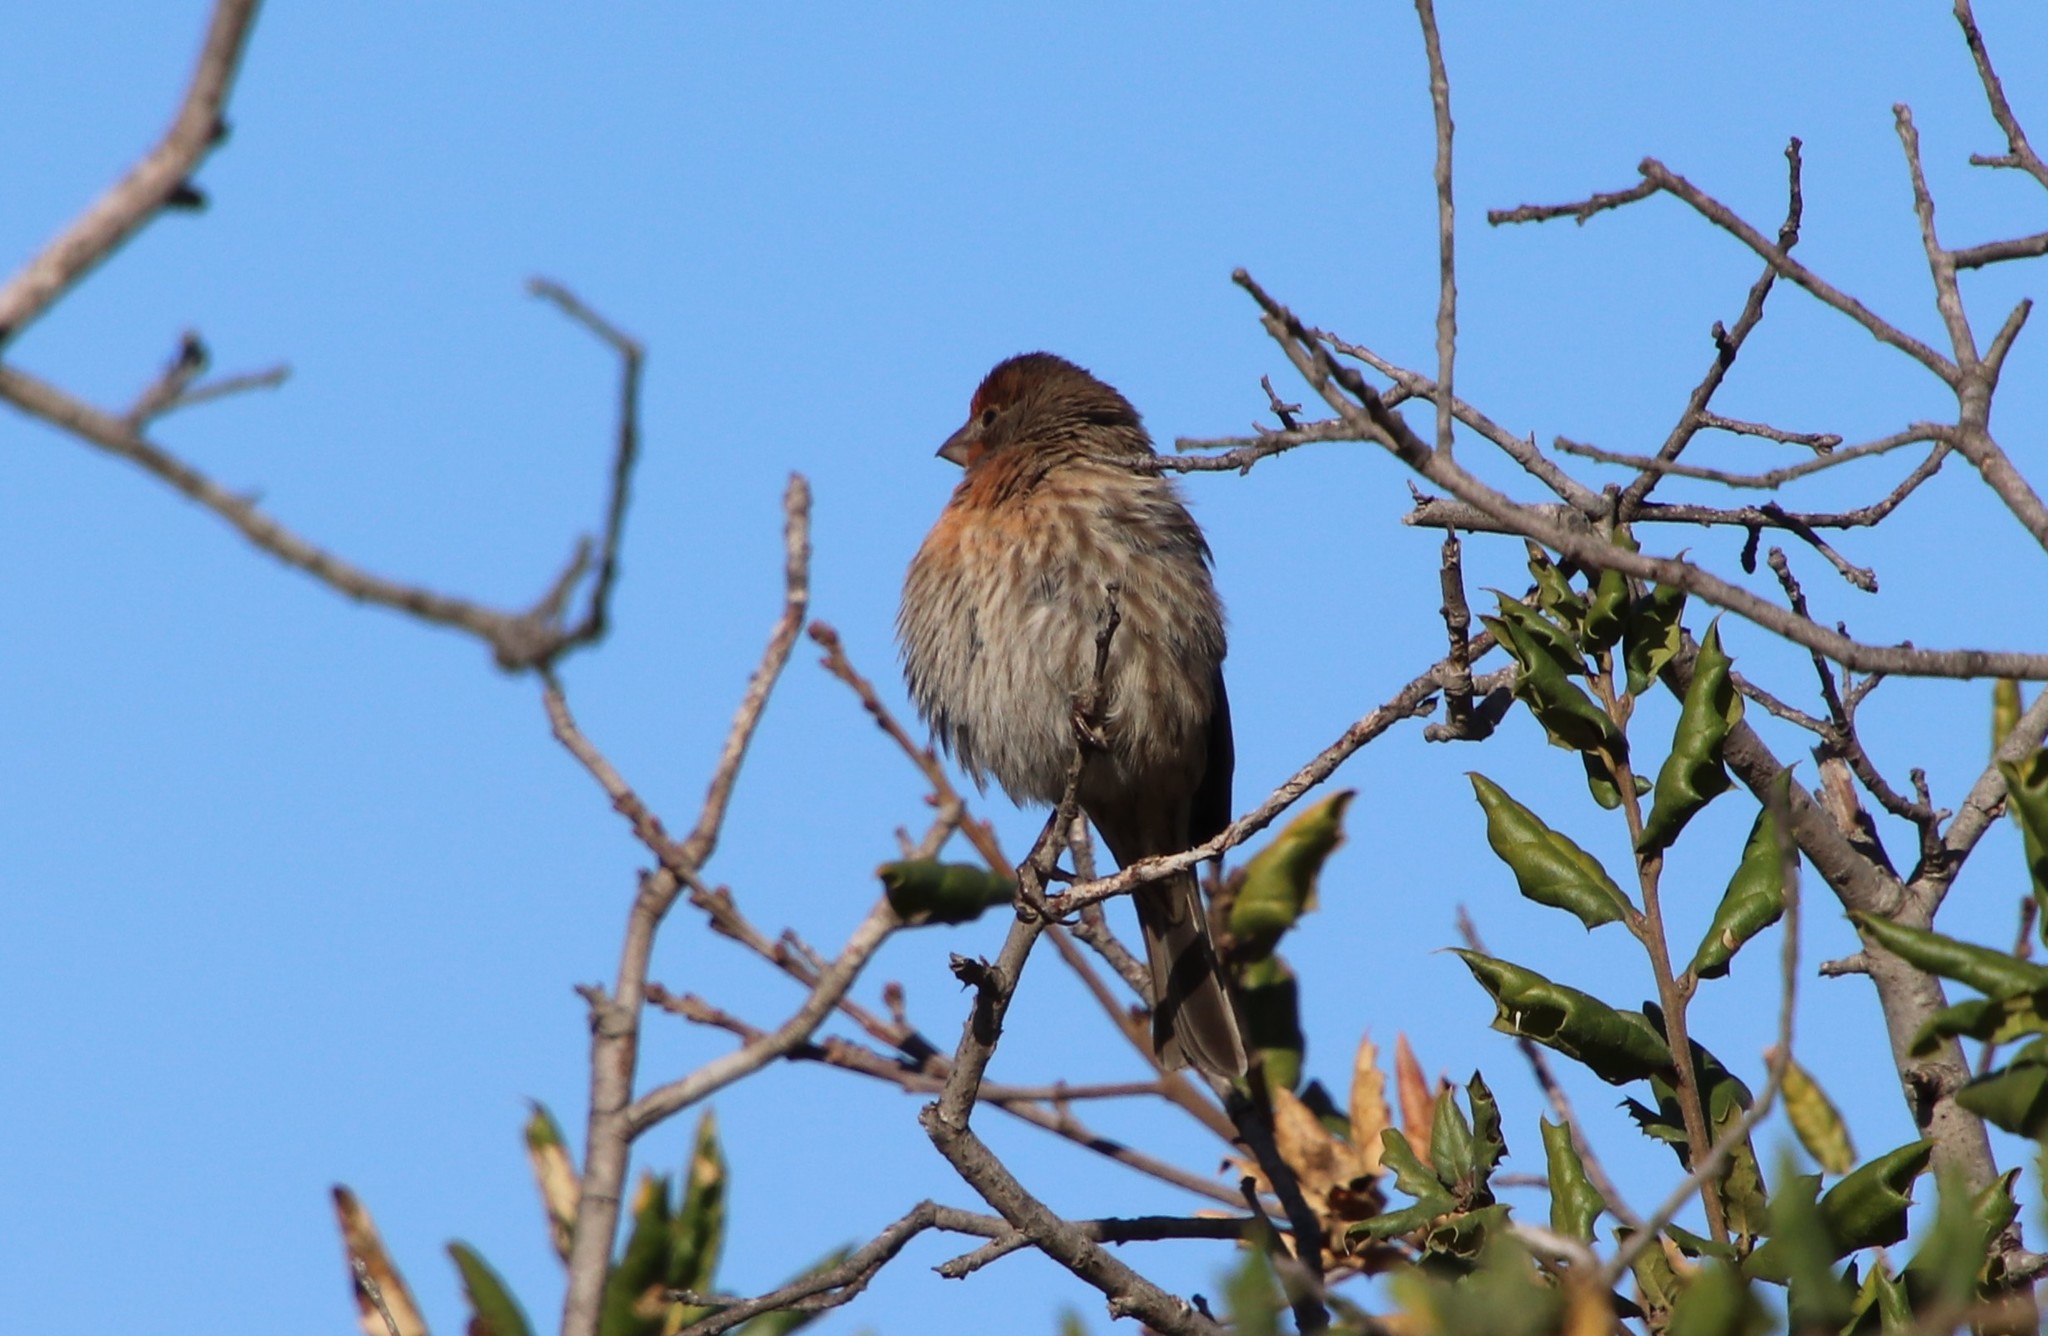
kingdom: Animalia
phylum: Chordata
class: Aves
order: Passeriformes
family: Fringillidae
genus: Haemorhous
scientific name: Haemorhous mexicanus
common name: House finch
